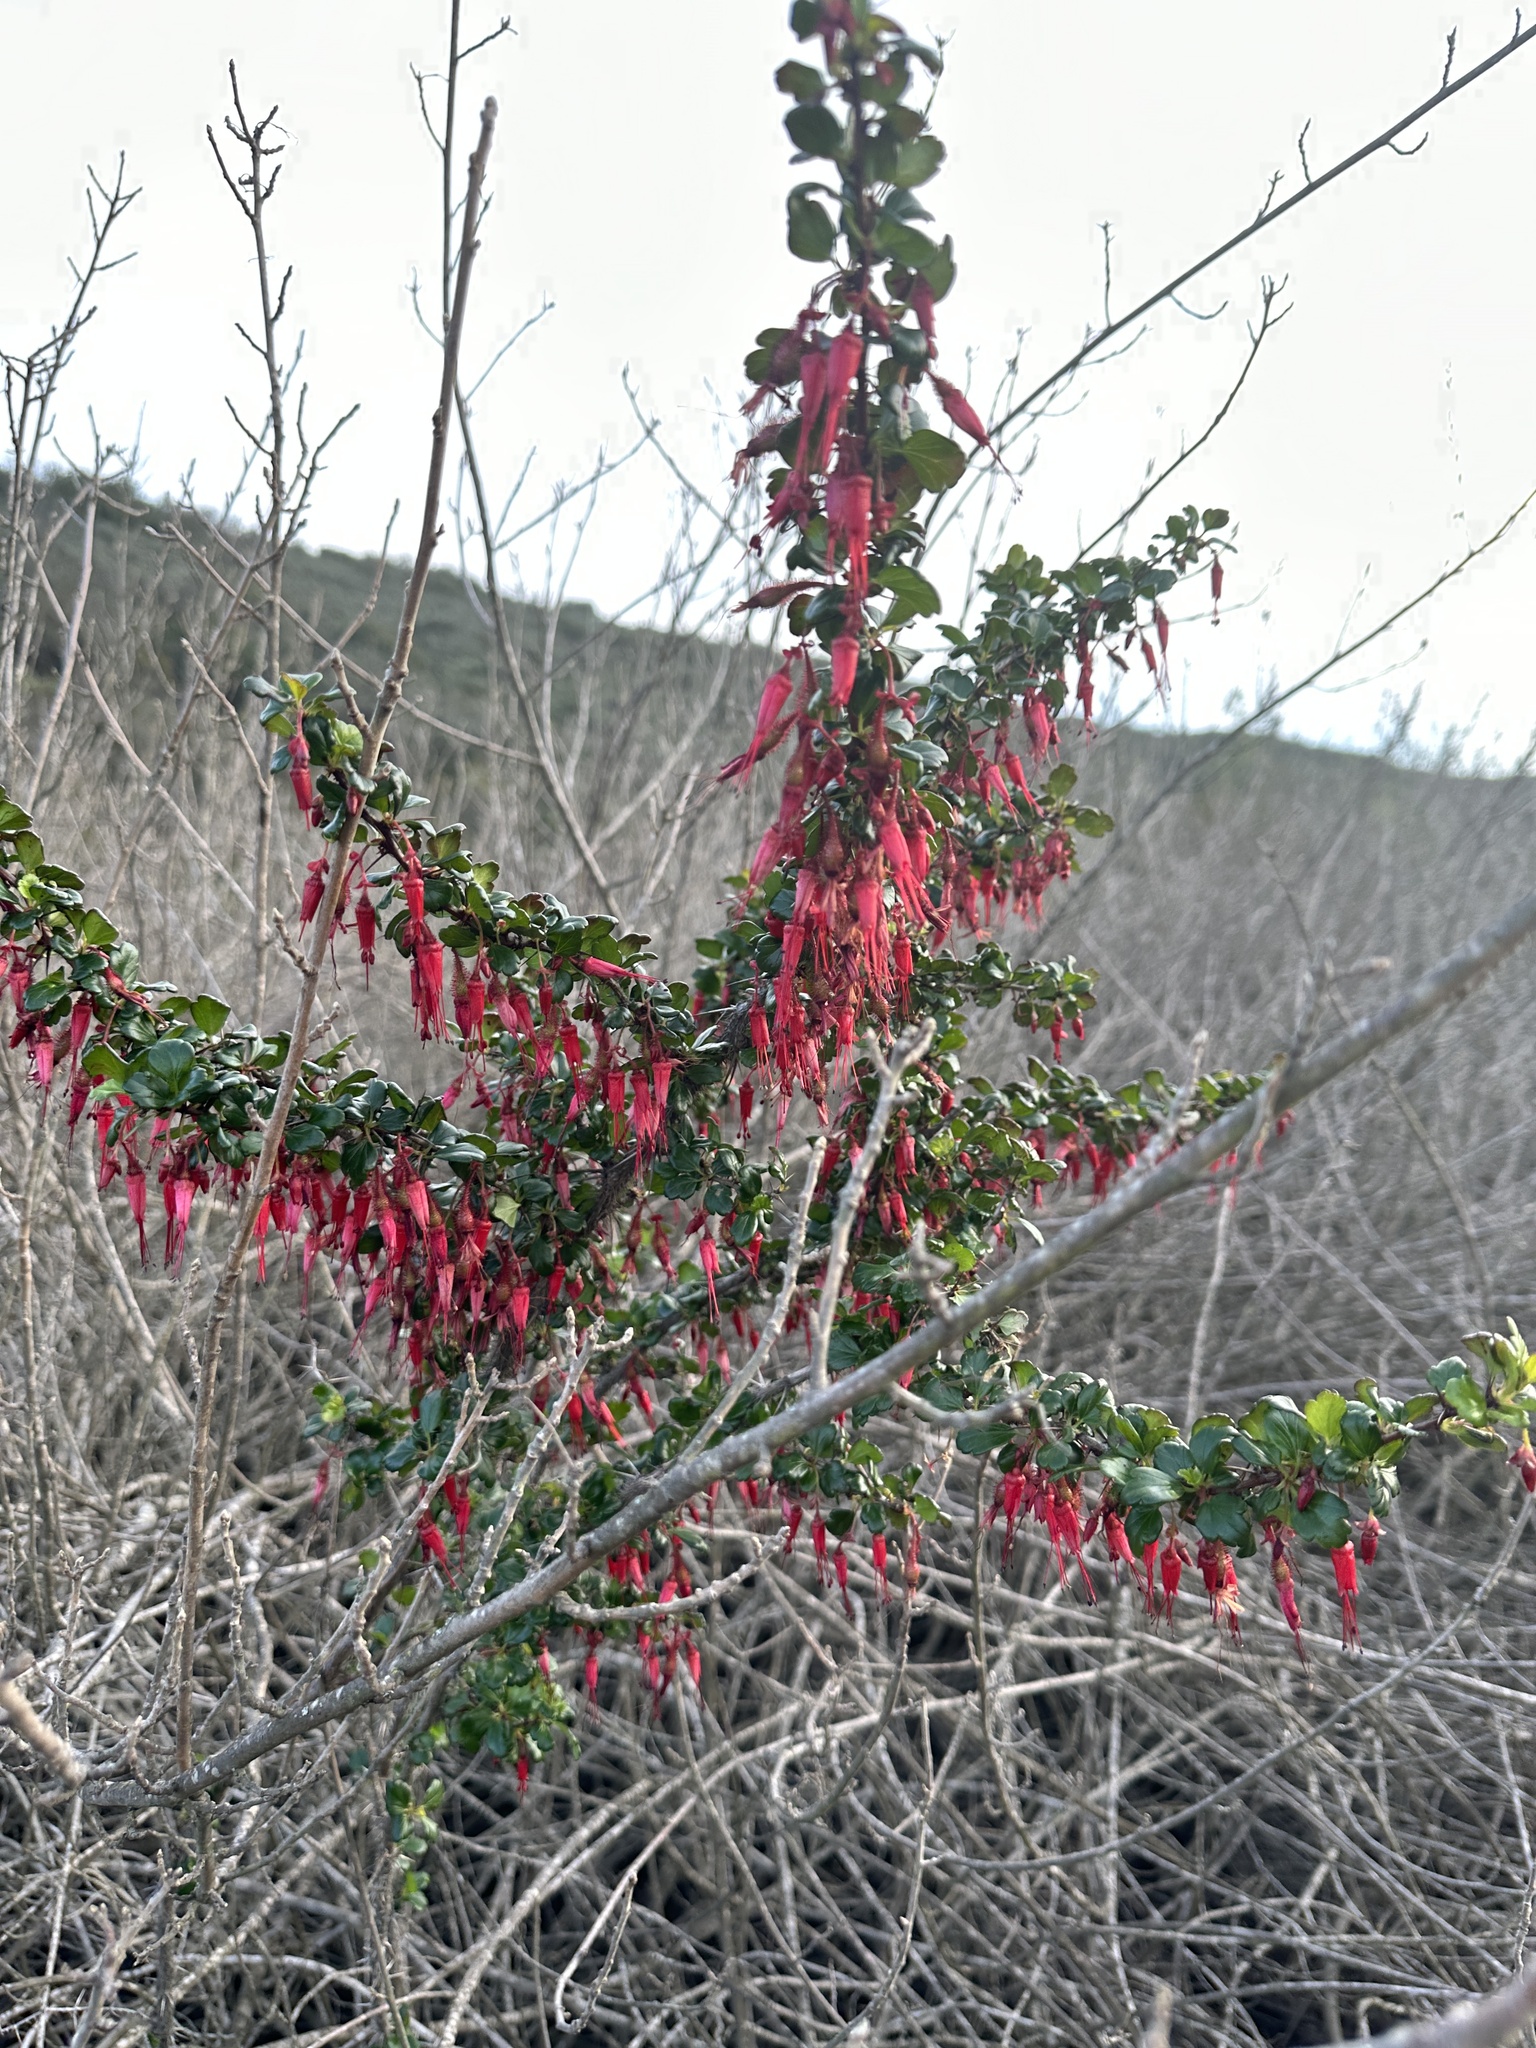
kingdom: Plantae
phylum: Tracheophyta
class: Magnoliopsida
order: Saxifragales
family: Grossulariaceae
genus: Ribes
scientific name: Ribes speciosum
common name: Fuchsia-flower gooseberry
